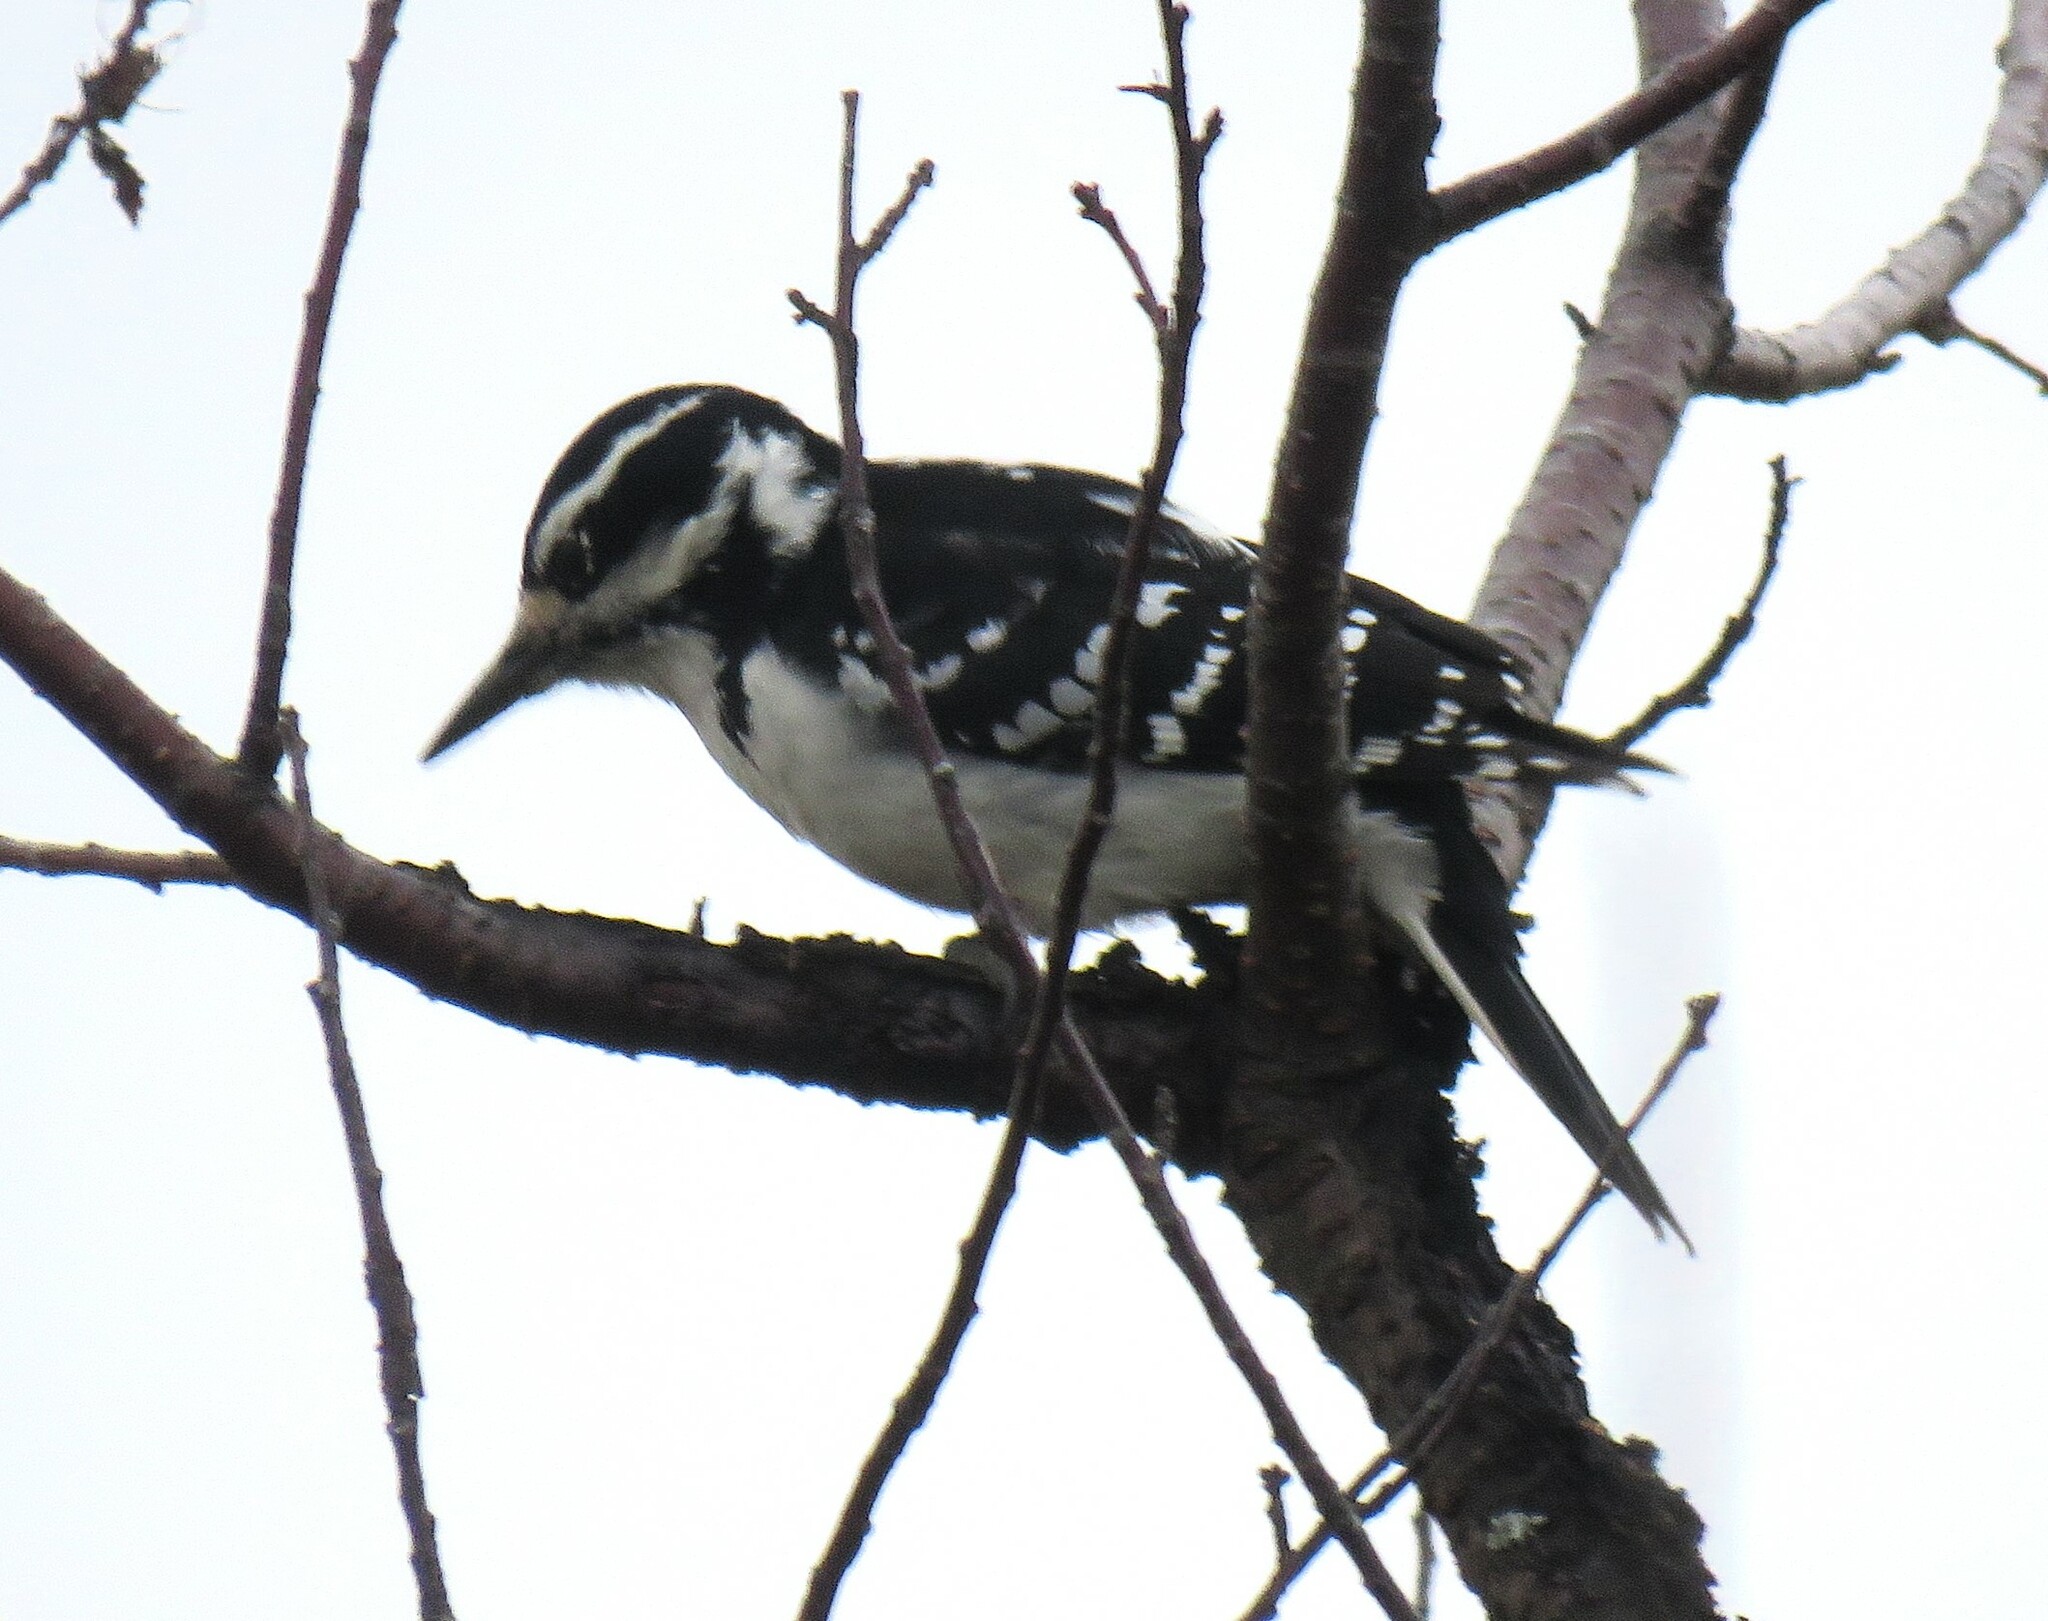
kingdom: Animalia
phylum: Chordata
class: Aves
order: Piciformes
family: Picidae
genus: Leuconotopicus
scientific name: Leuconotopicus villosus
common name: Hairy woodpecker
